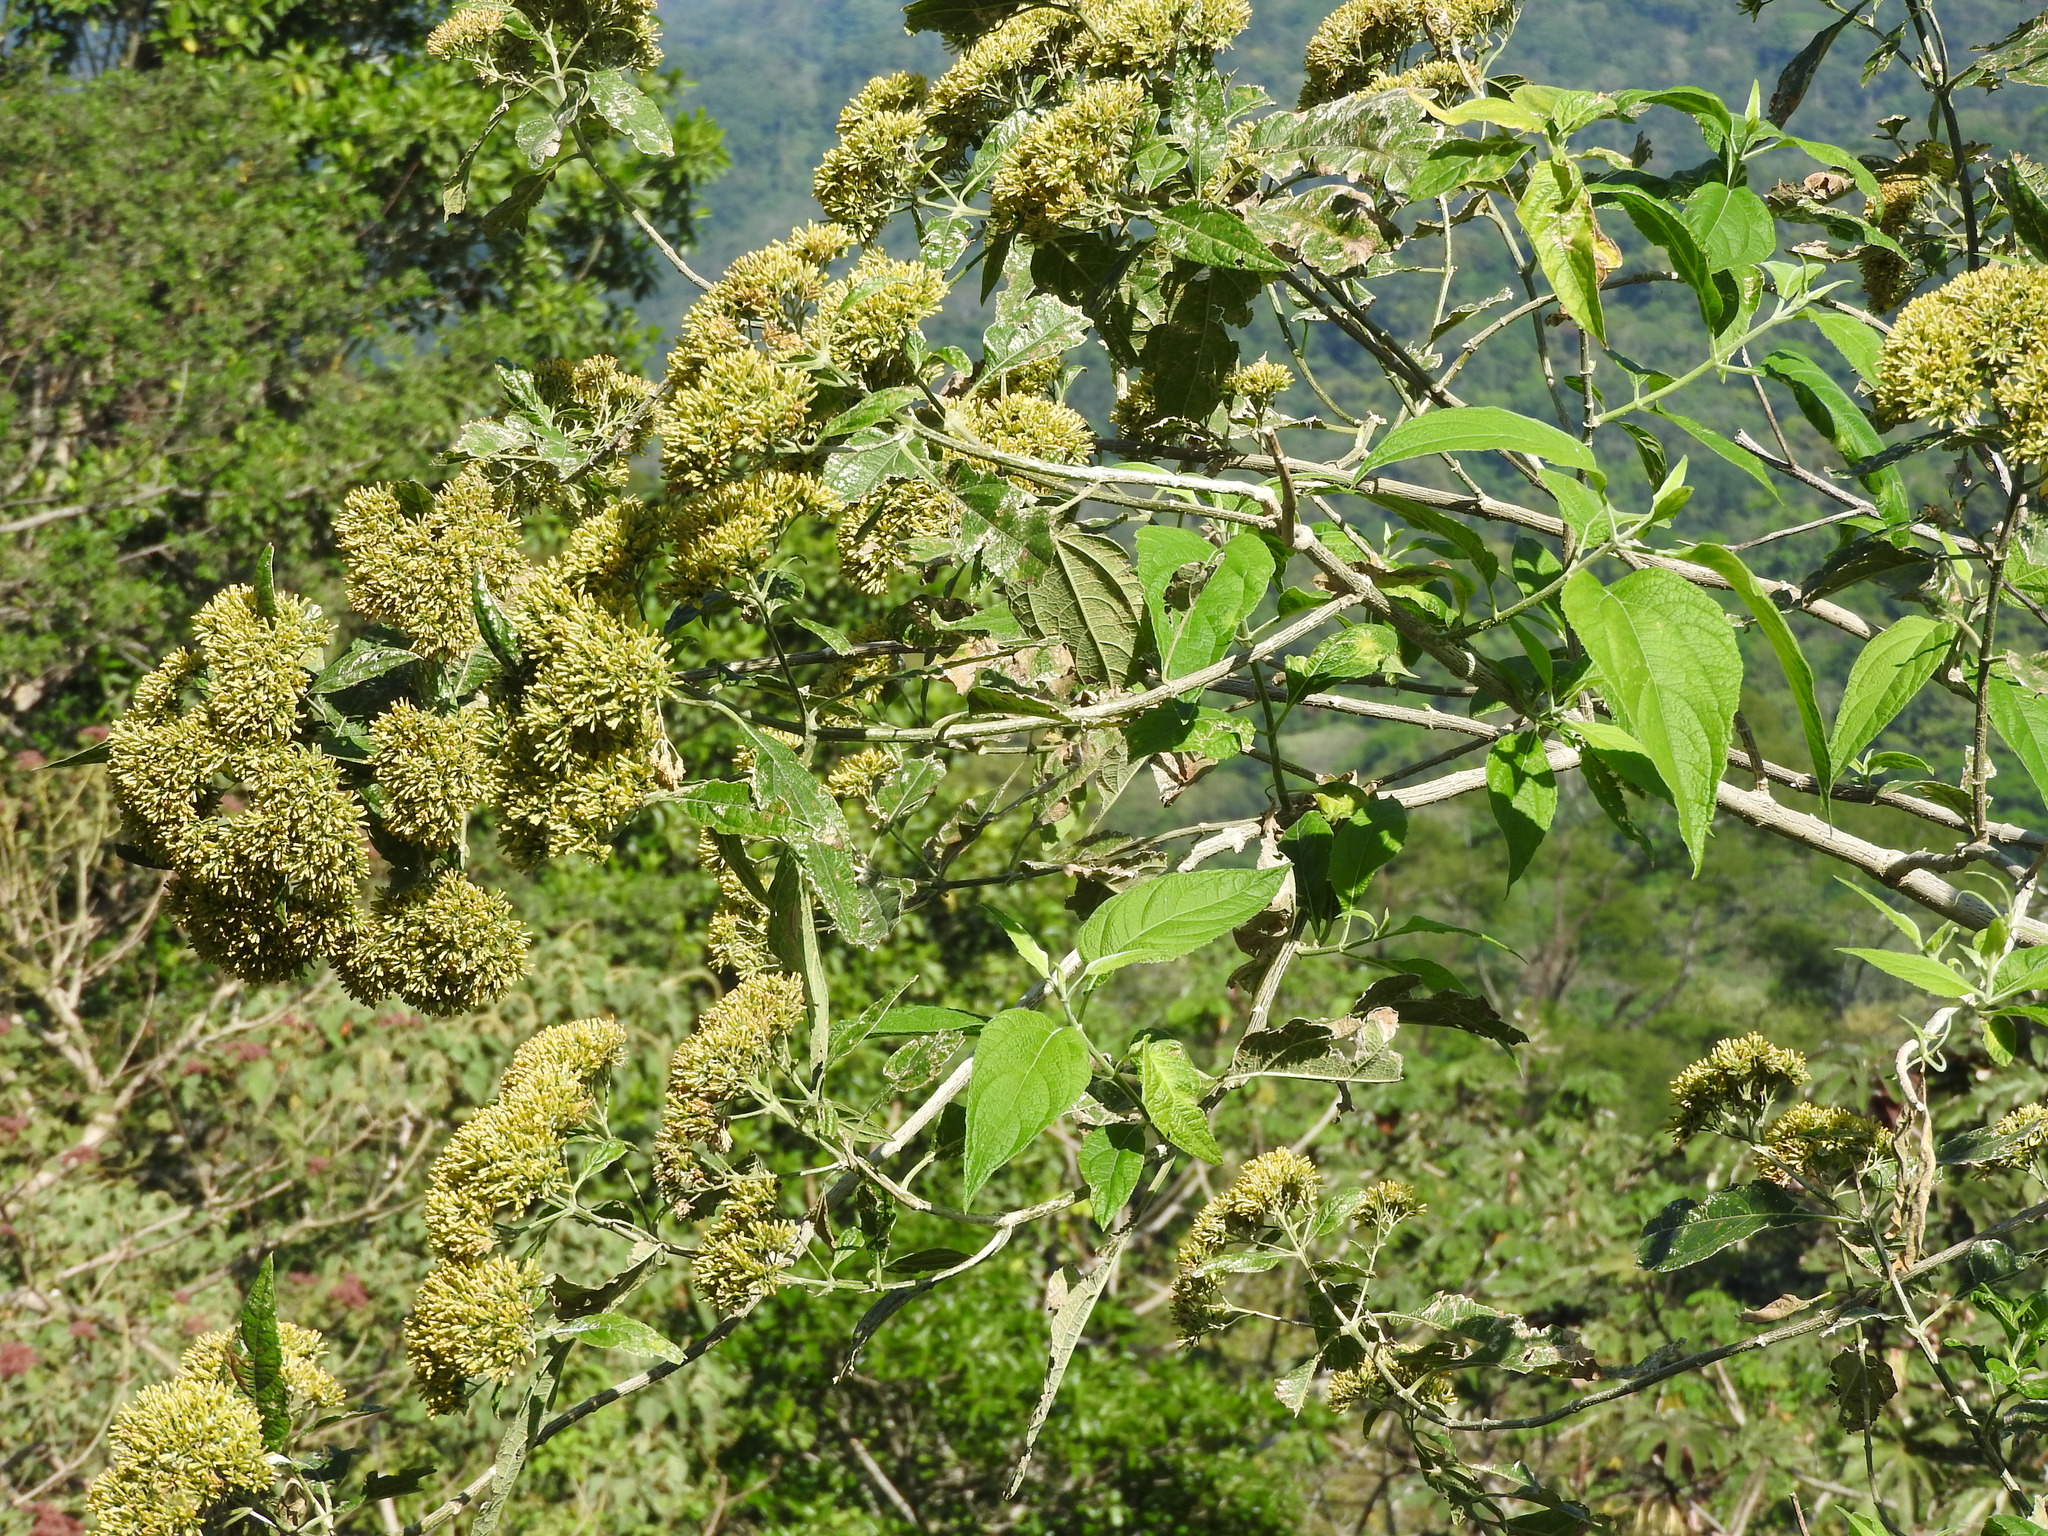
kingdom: Plantae
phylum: Tracheophyta
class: Magnoliopsida
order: Asterales
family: Asteraceae
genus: Critonia
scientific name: Critonia morifolia
